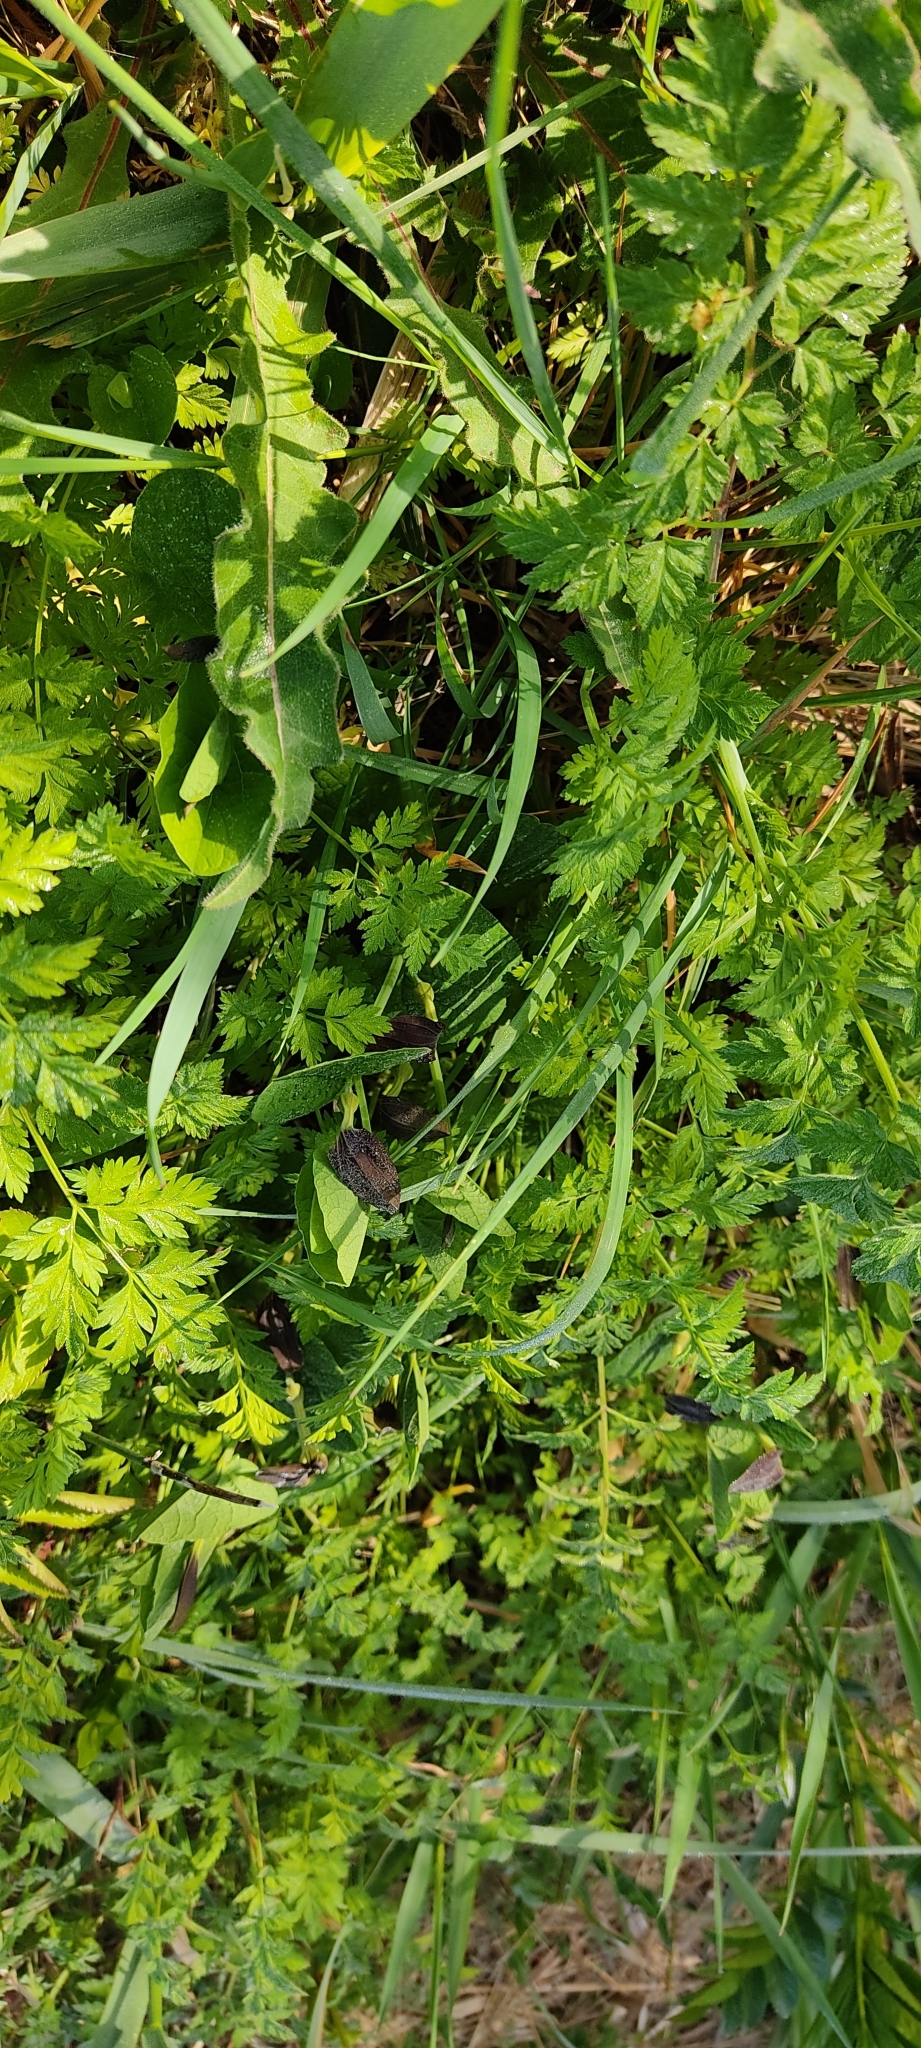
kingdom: Plantae
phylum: Tracheophyta
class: Magnoliopsida
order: Piperales
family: Aristolochiaceae
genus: Aristolochia
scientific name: Aristolochia rotunda
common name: Smearwort
